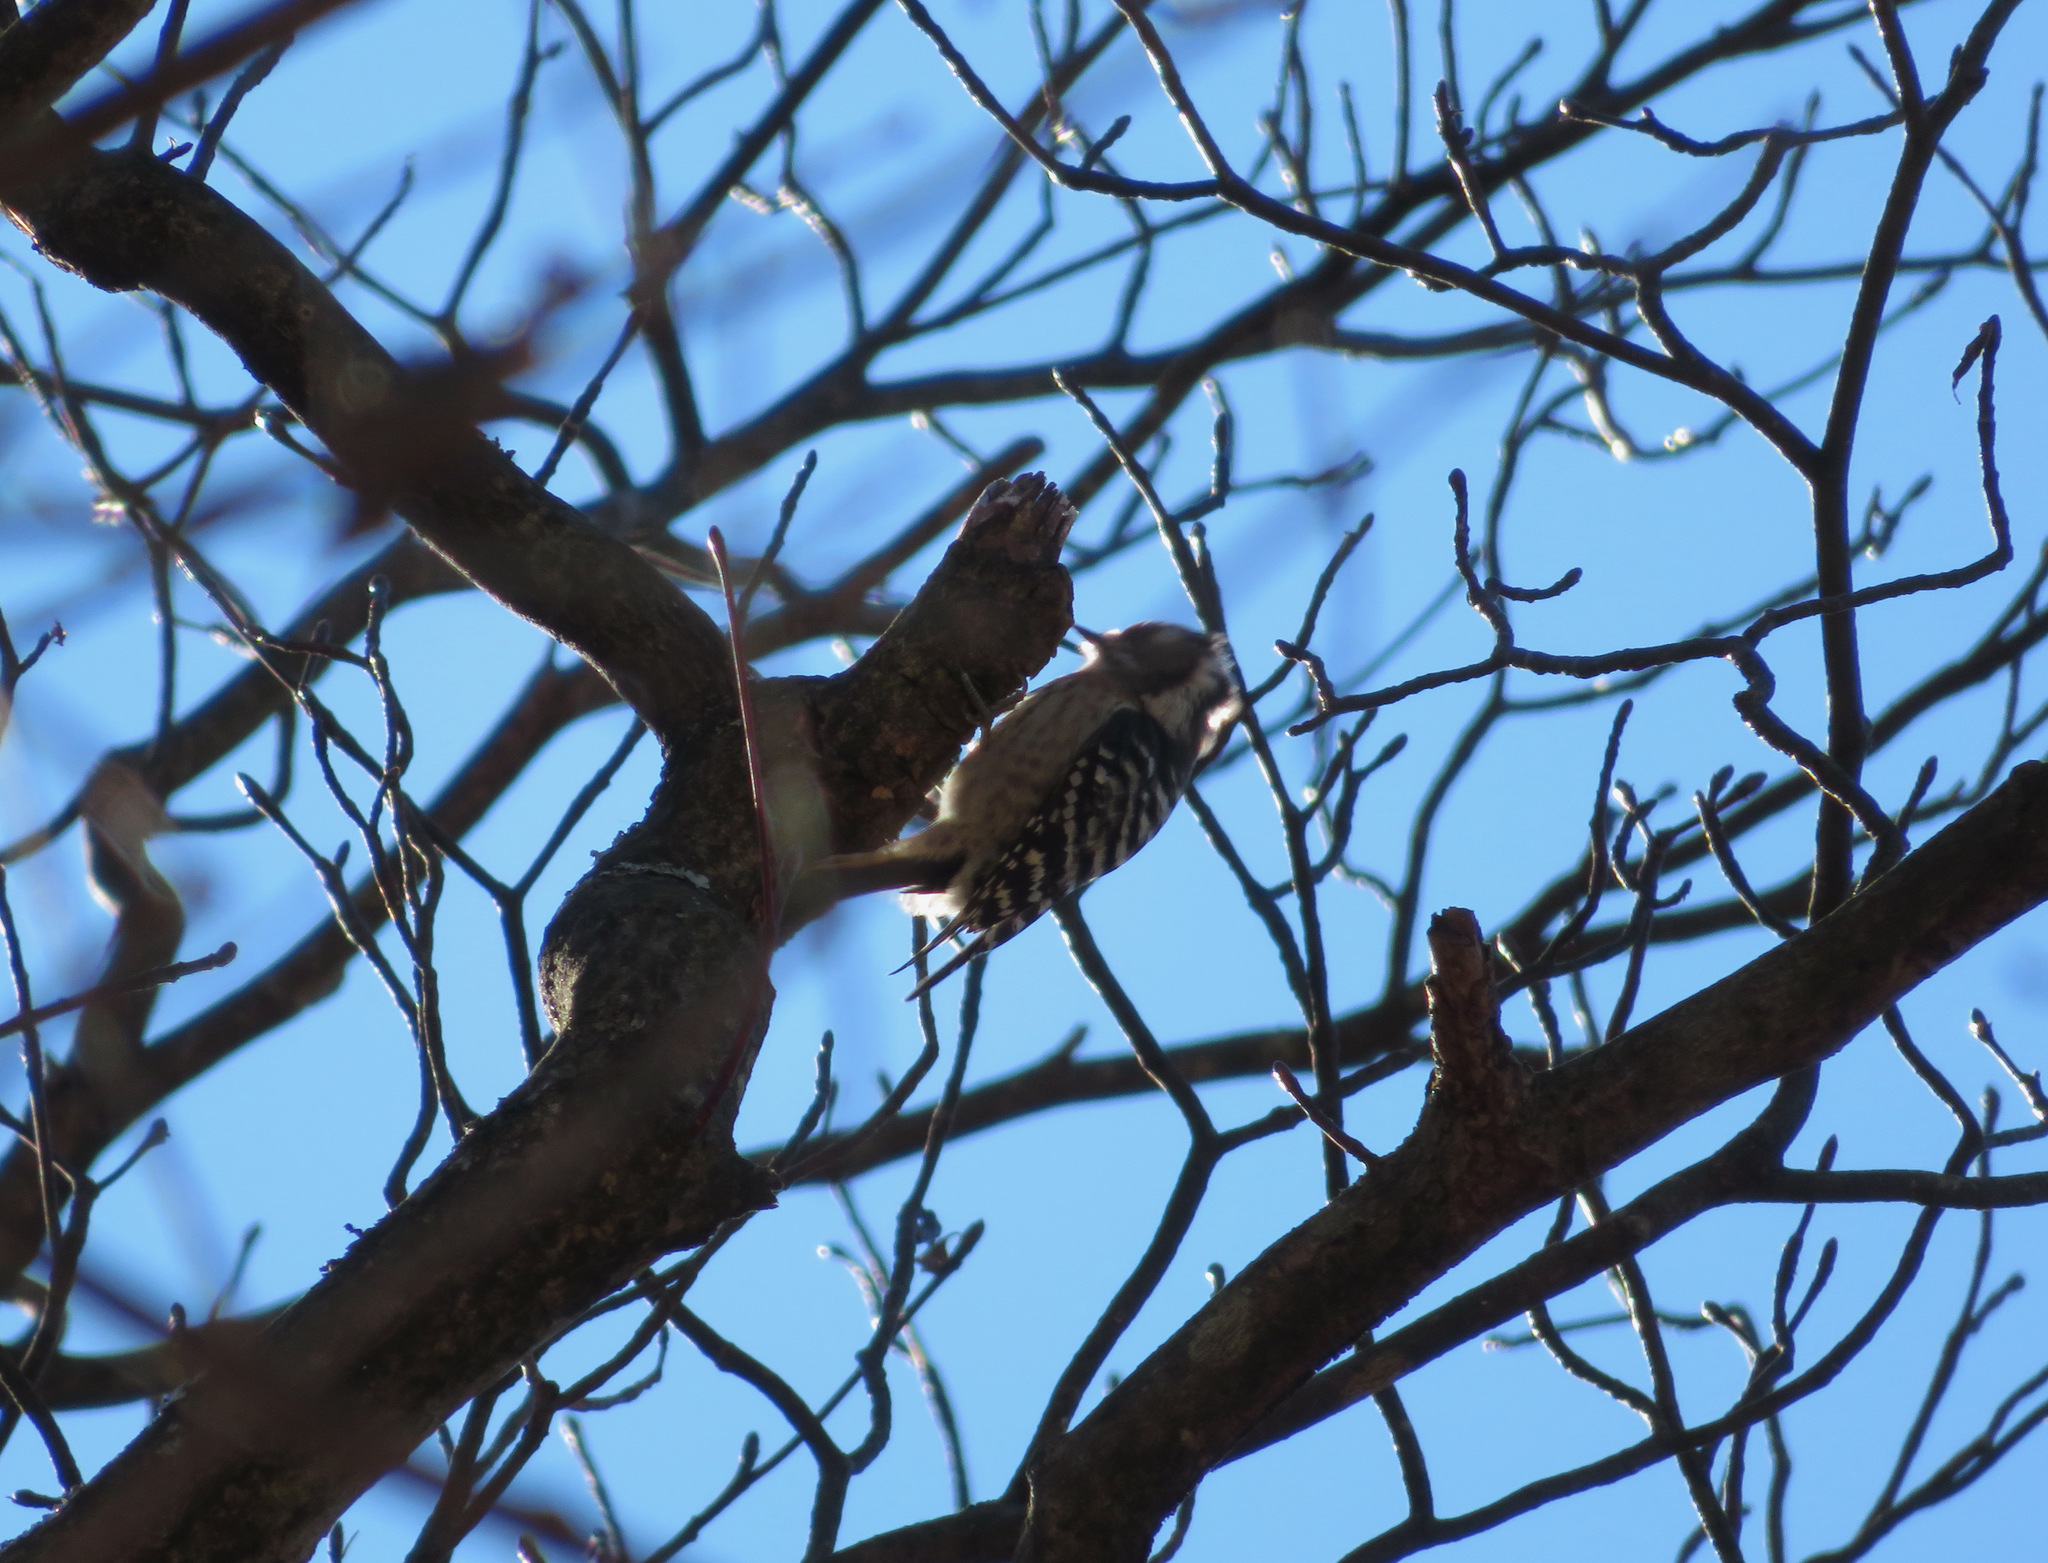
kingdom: Animalia
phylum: Chordata
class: Aves
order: Piciformes
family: Picidae
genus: Yungipicus
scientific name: Yungipicus kizuki
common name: Japanese pygmy woodpecker
